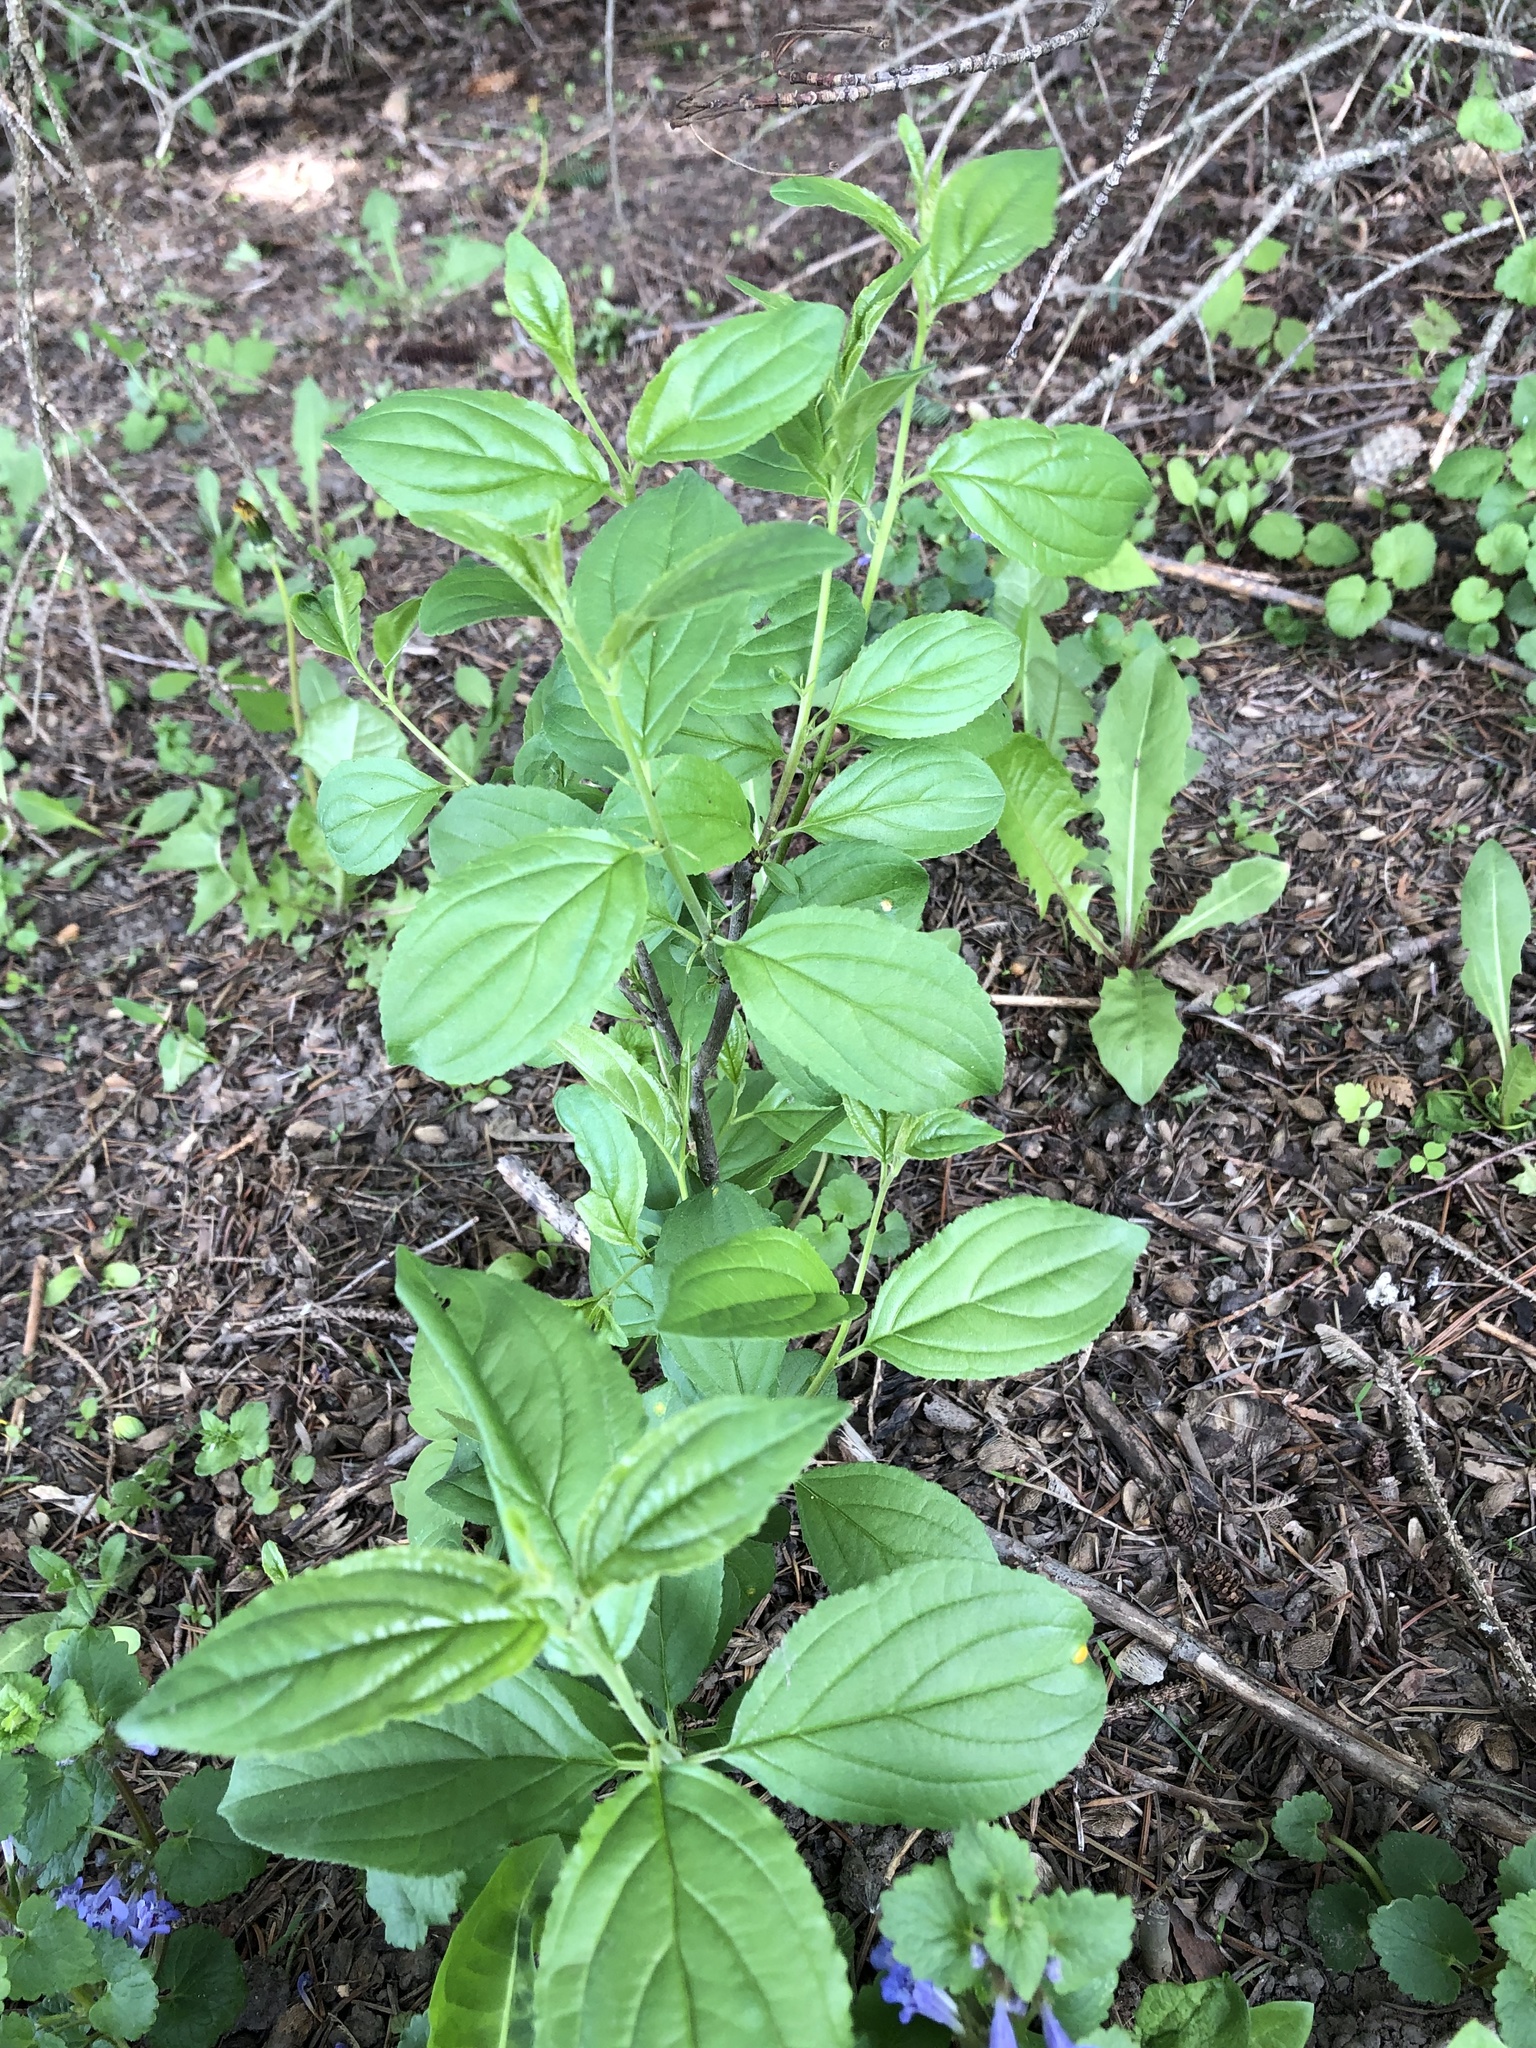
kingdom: Plantae
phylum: Tracheophyta
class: Magnoliopsida
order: Rosales
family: Rhamnaceae
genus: Rhamnus
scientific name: Rhamnus cathartica
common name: Common buckthorn
